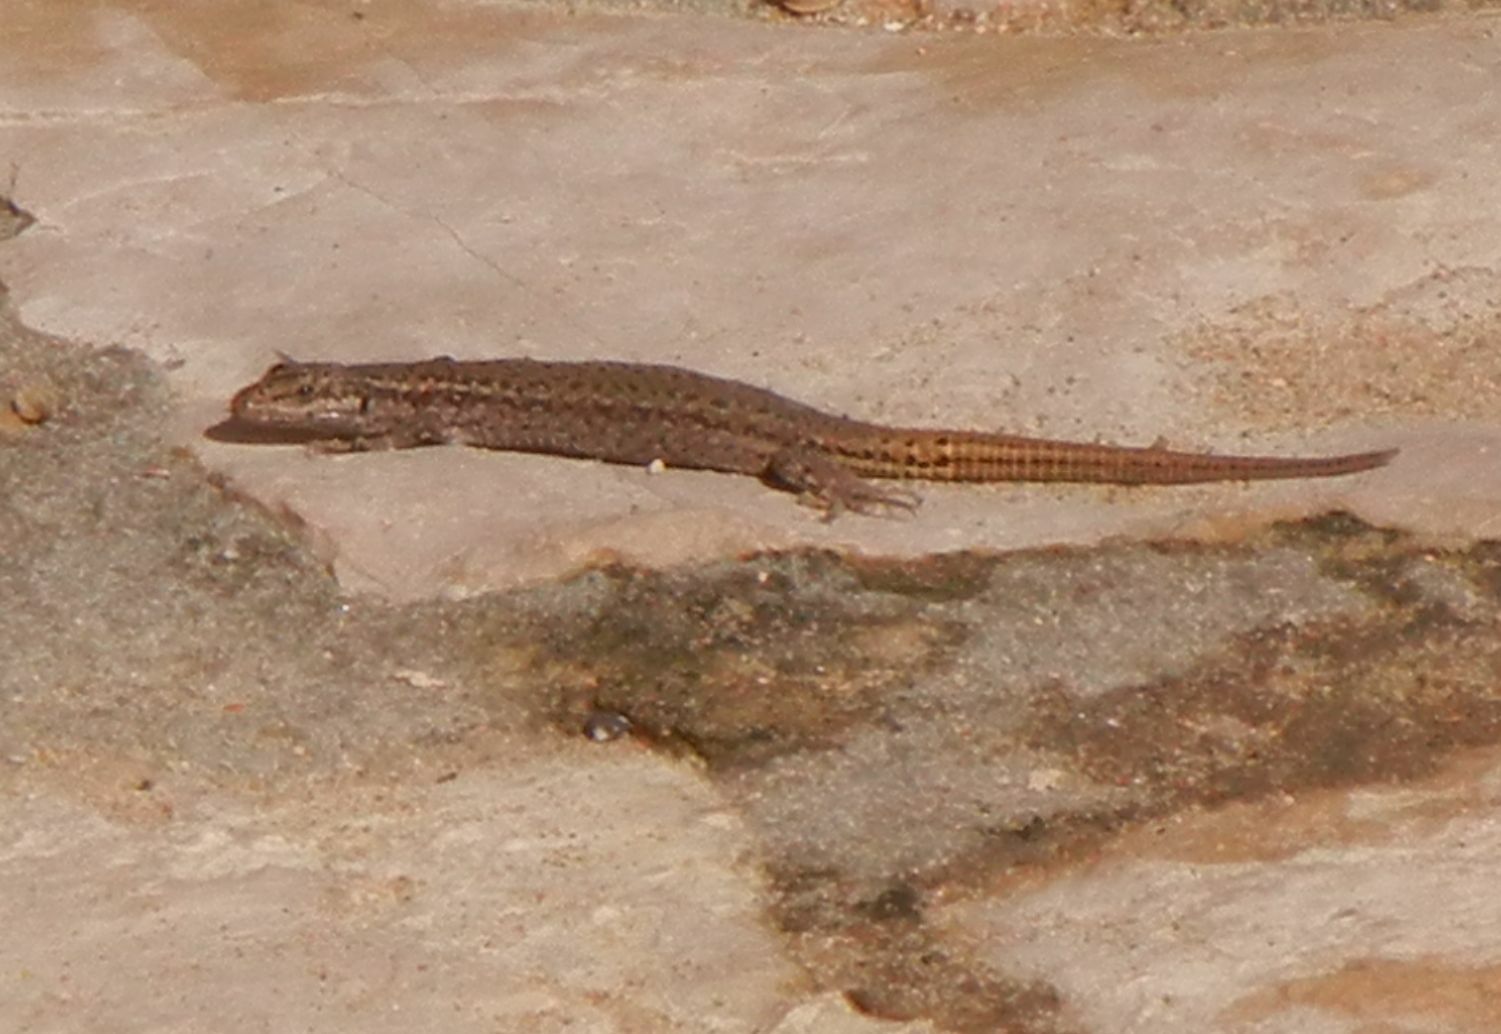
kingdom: Animalia
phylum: Chordata
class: Squamata
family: Lacertidae
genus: Podarcis
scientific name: Podarcis virescens
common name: Geniez’s wall lizard
